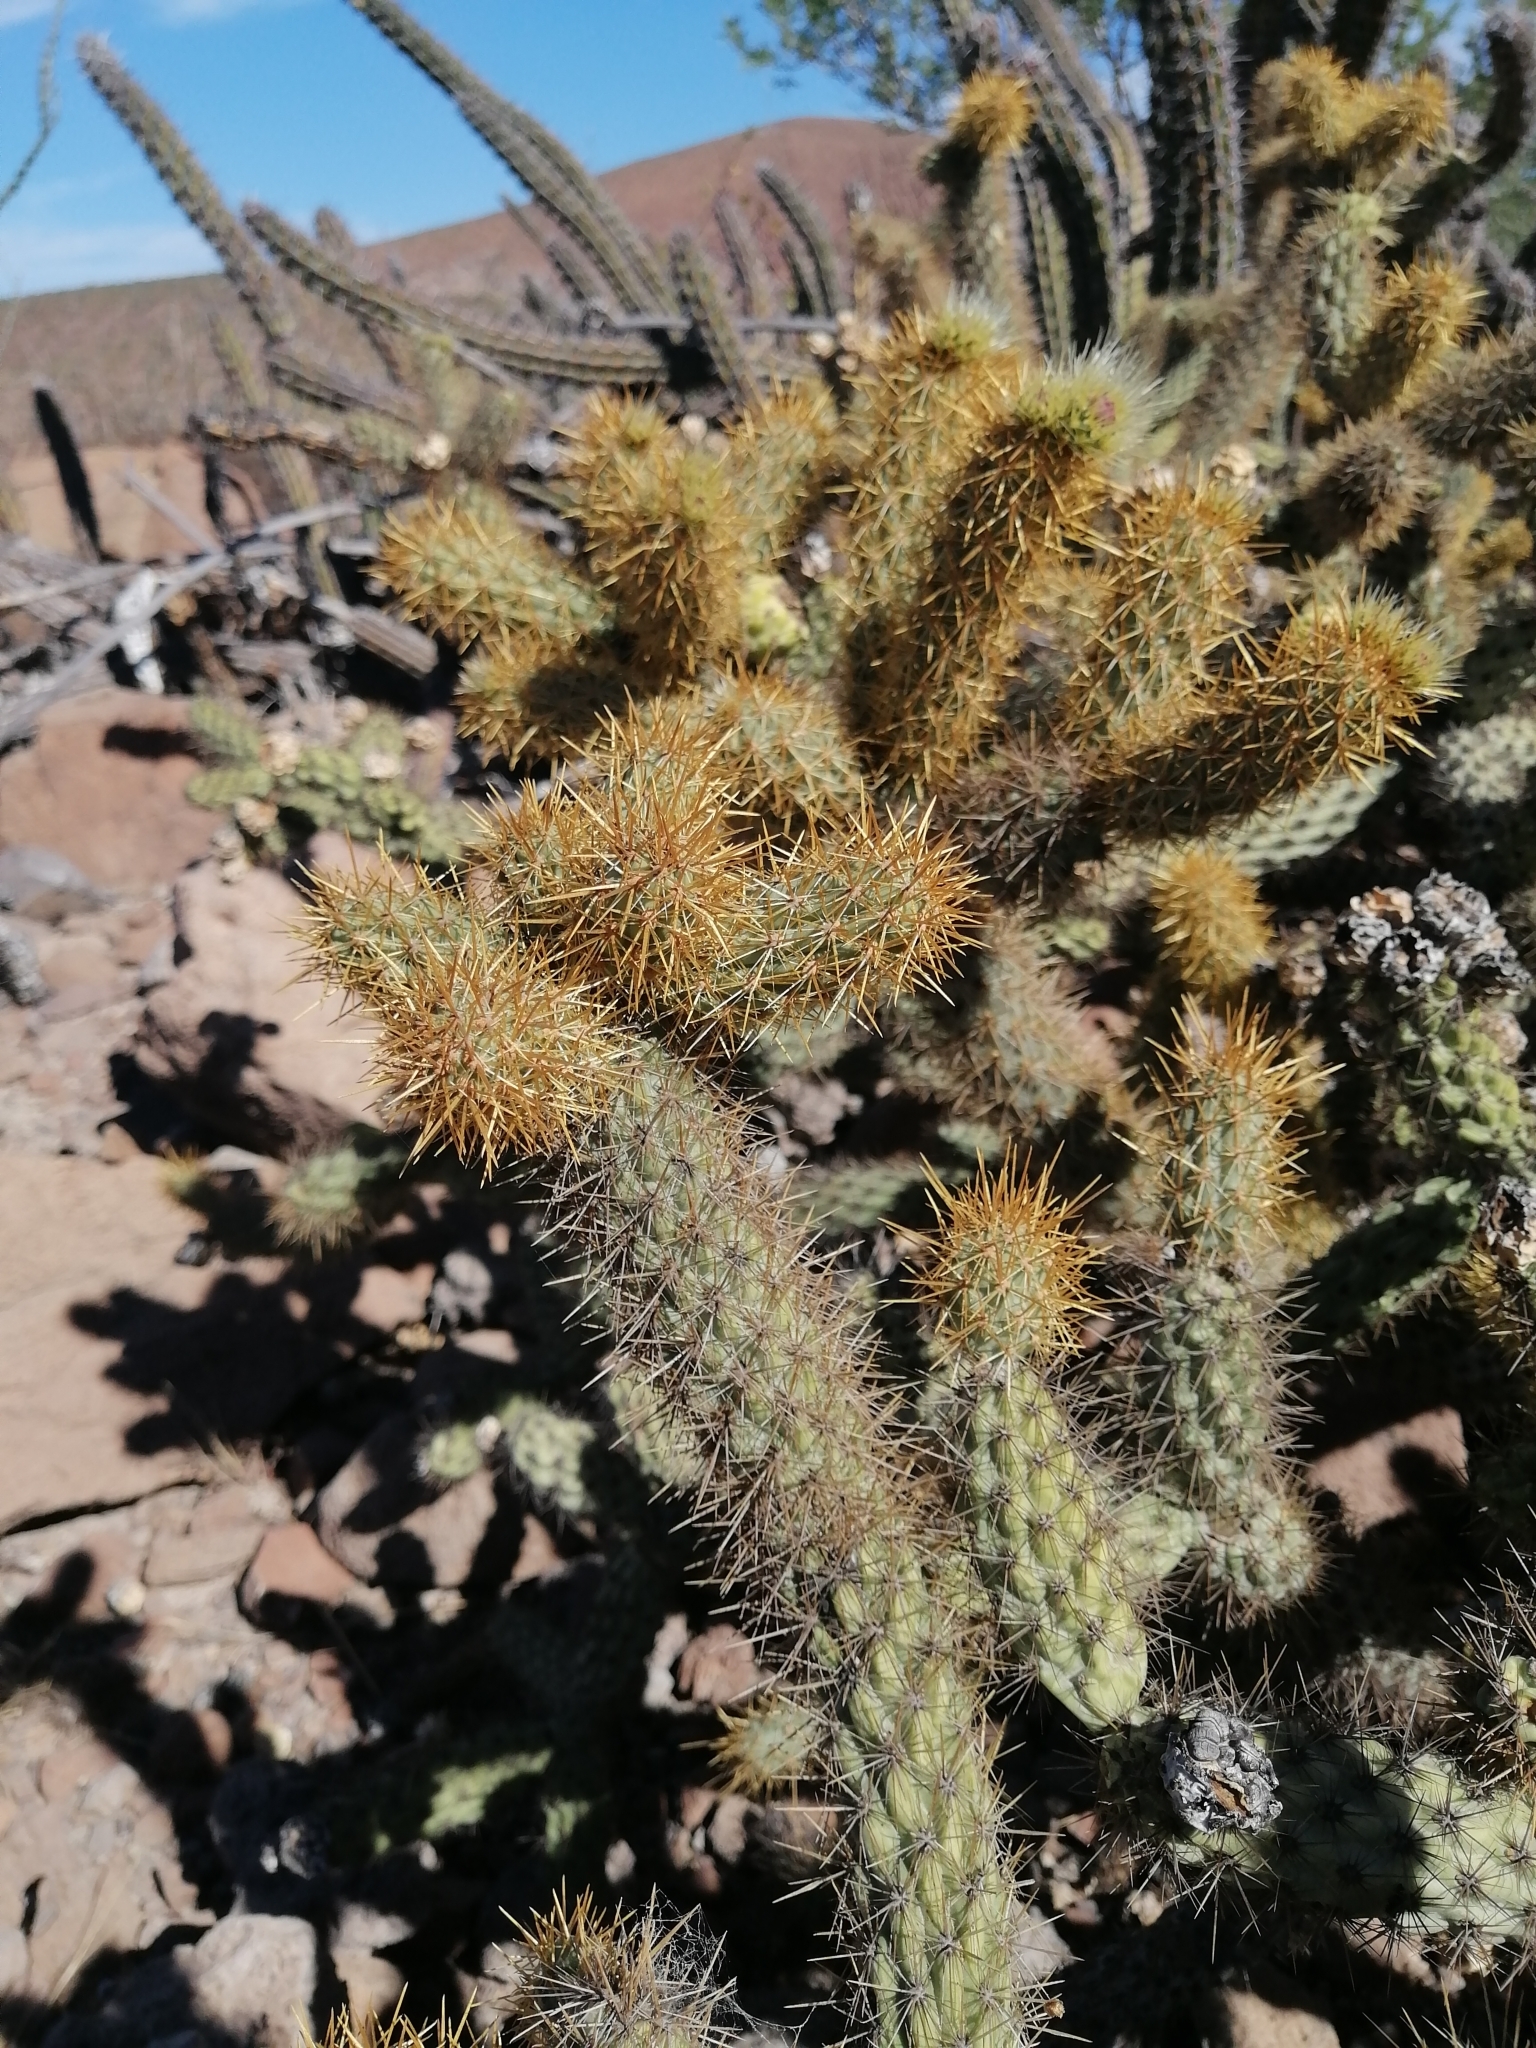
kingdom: Plantae
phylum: Tracheophyta
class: Magnoliopsida
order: Caryophyllales
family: Cactaceae
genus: Cylindropuntia
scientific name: Cylindropuntia alcahes
